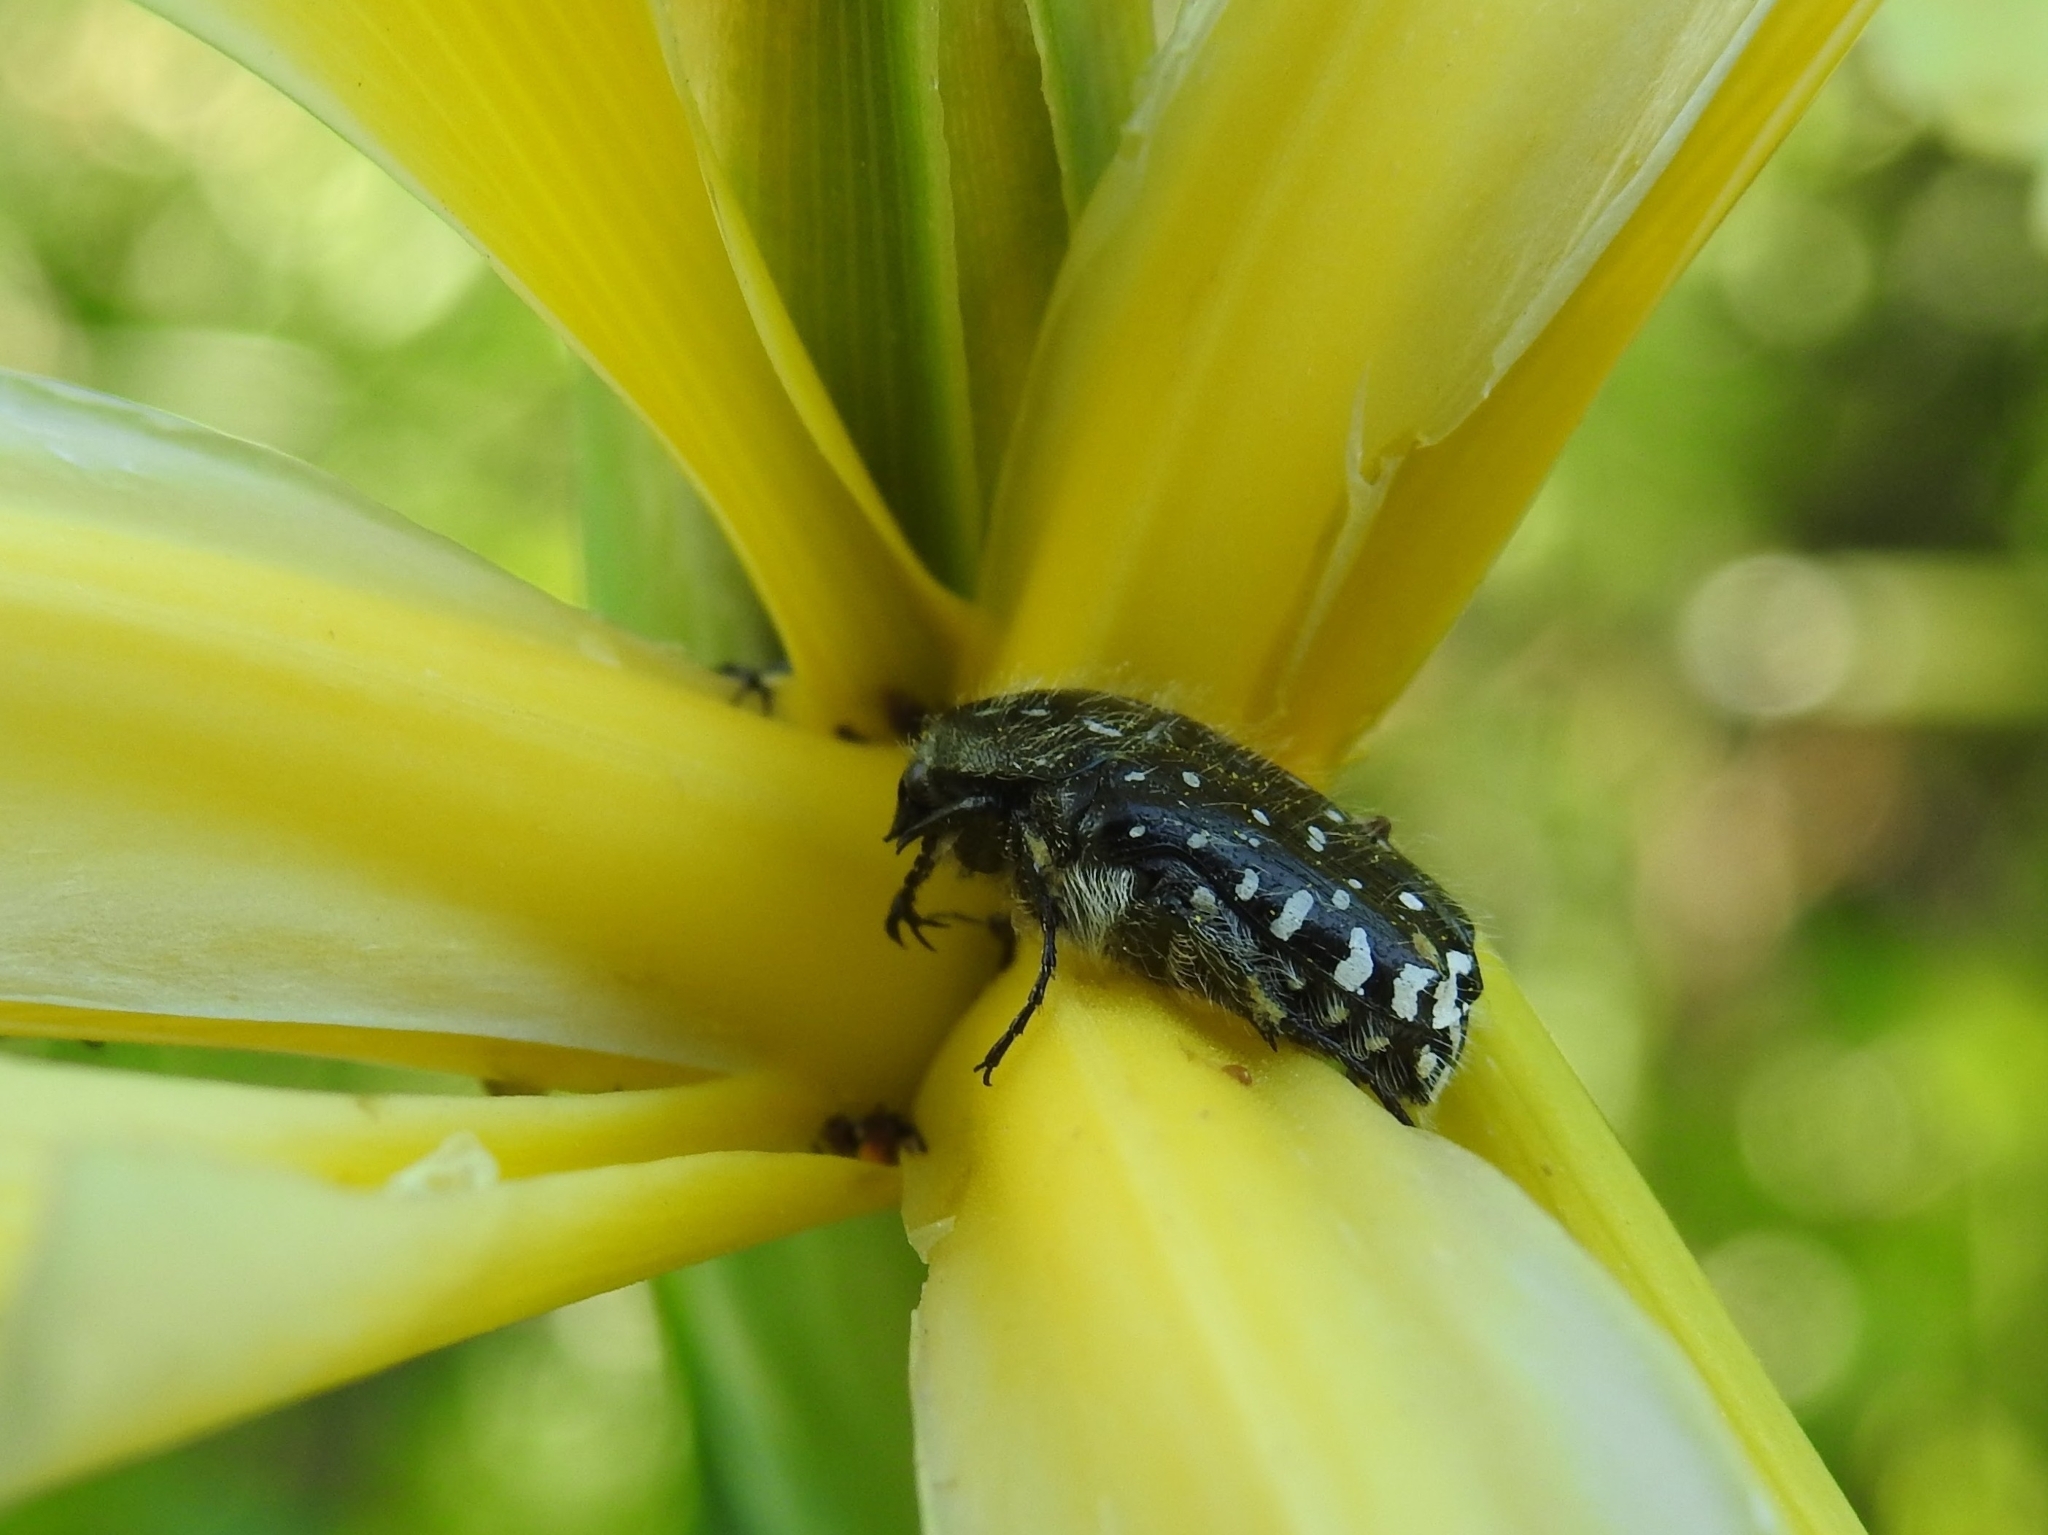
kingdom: Animalia
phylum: Arthropoda
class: Insecta
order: Coleoptera
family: Scarabaeidae
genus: Oxythyrea
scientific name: Oxythyrea funesta
